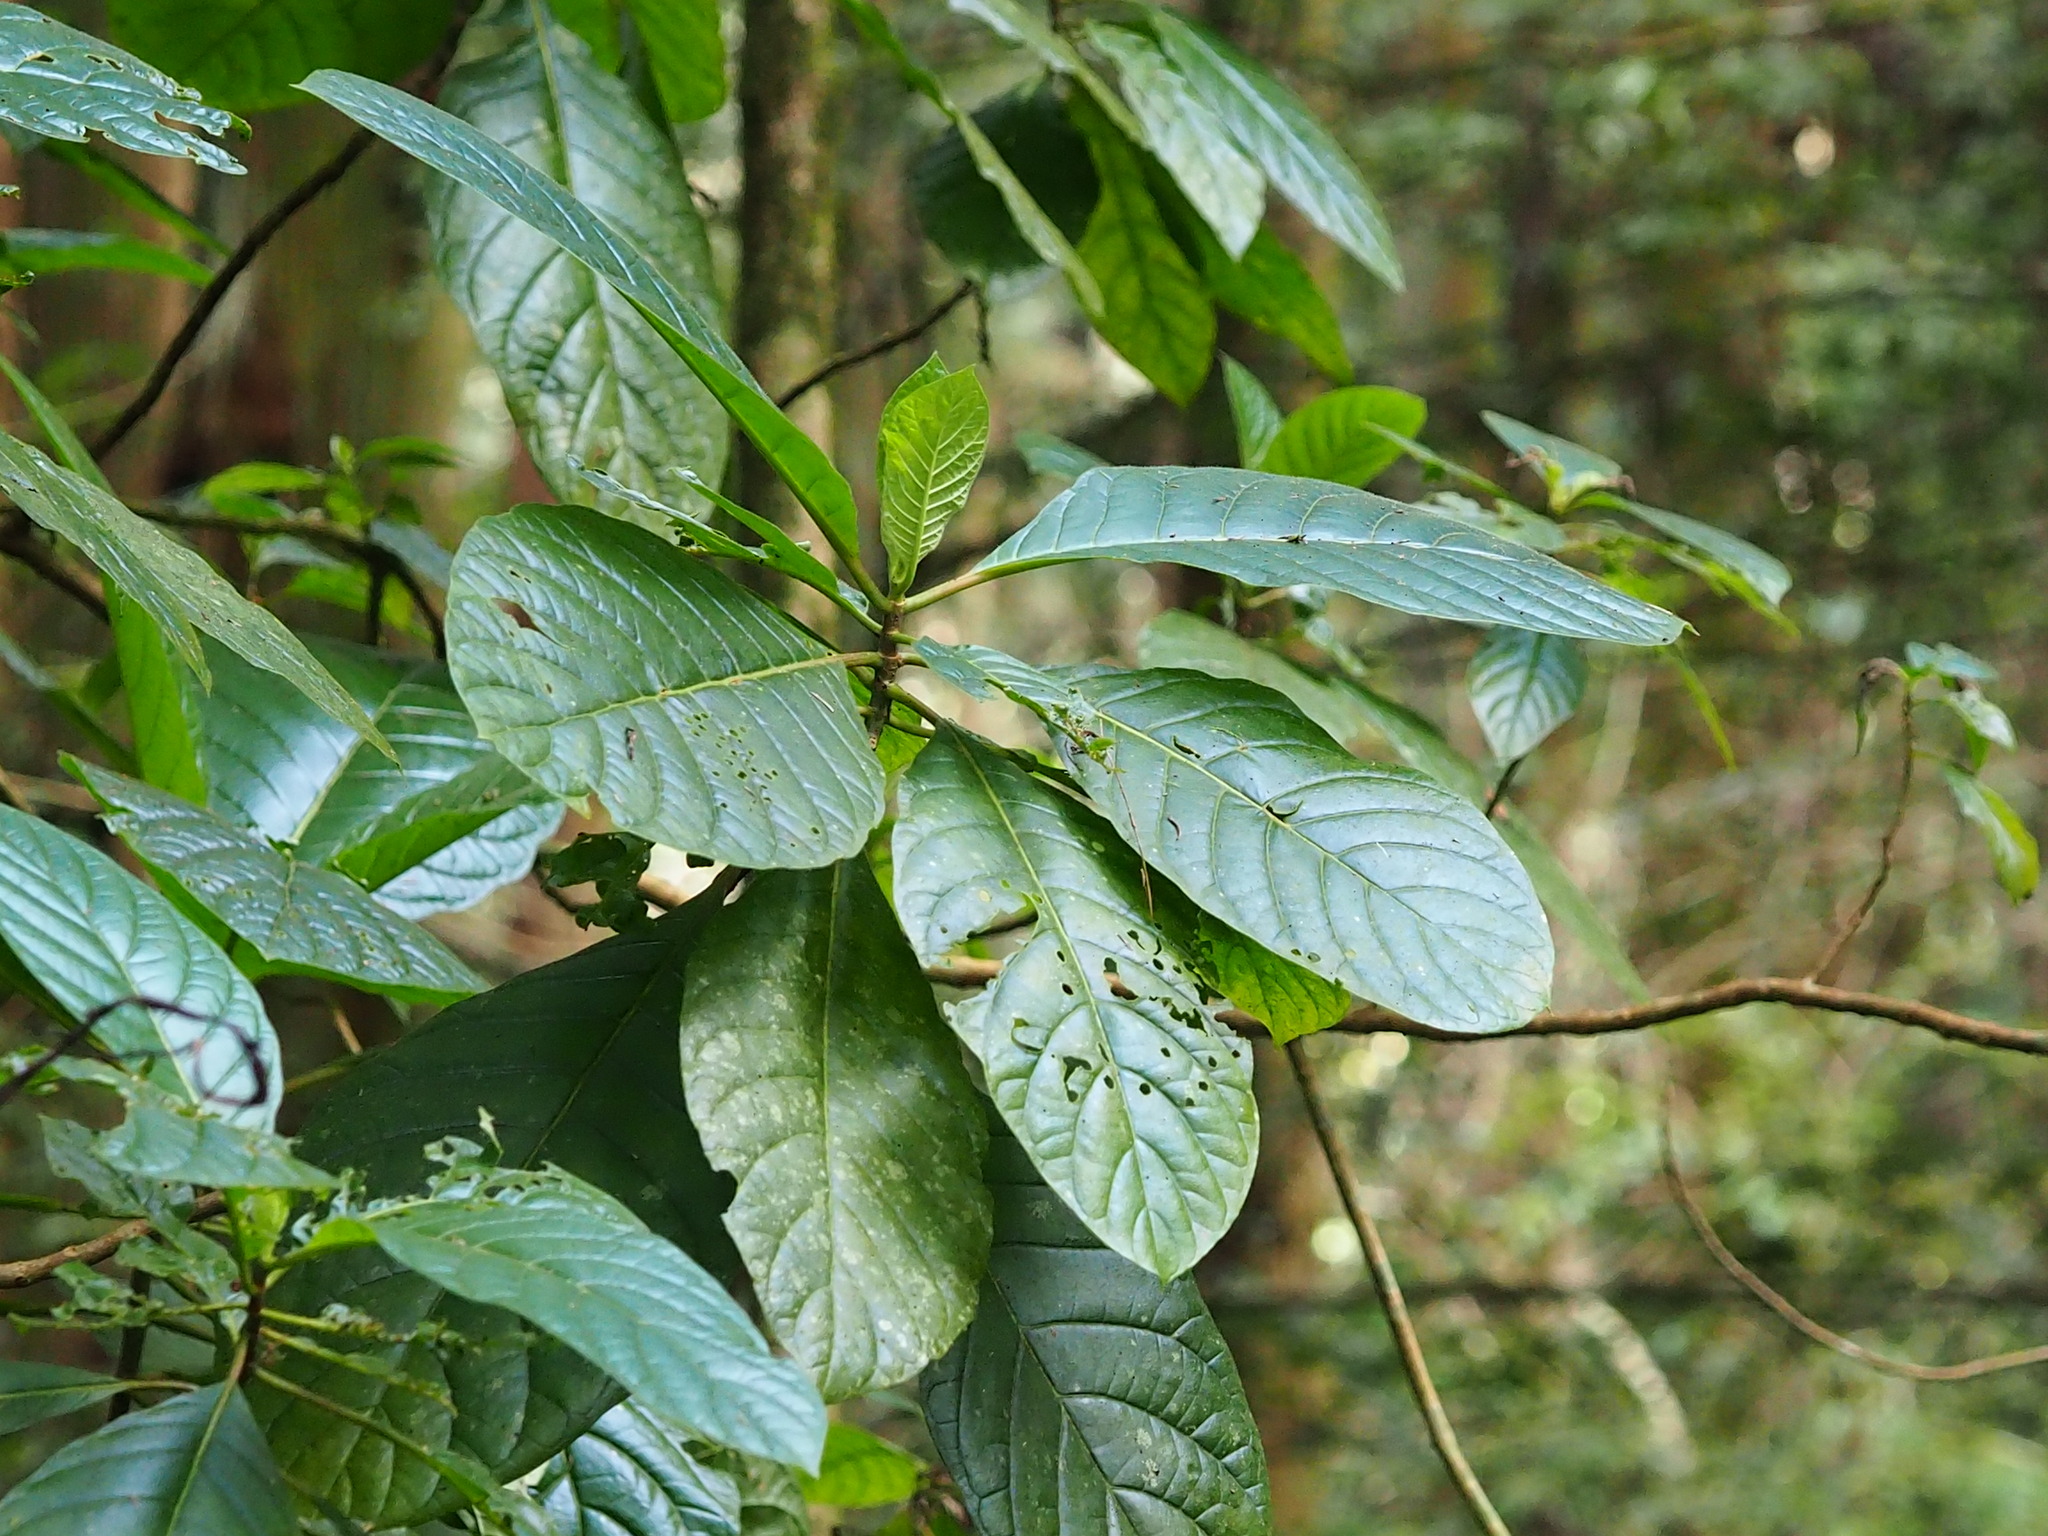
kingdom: Plantae
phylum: Tracheophyta
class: Magnoliopsida
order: Gentianales
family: Rubiaceae
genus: Cinchona
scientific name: Cinchona pubescens
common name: Quinine
